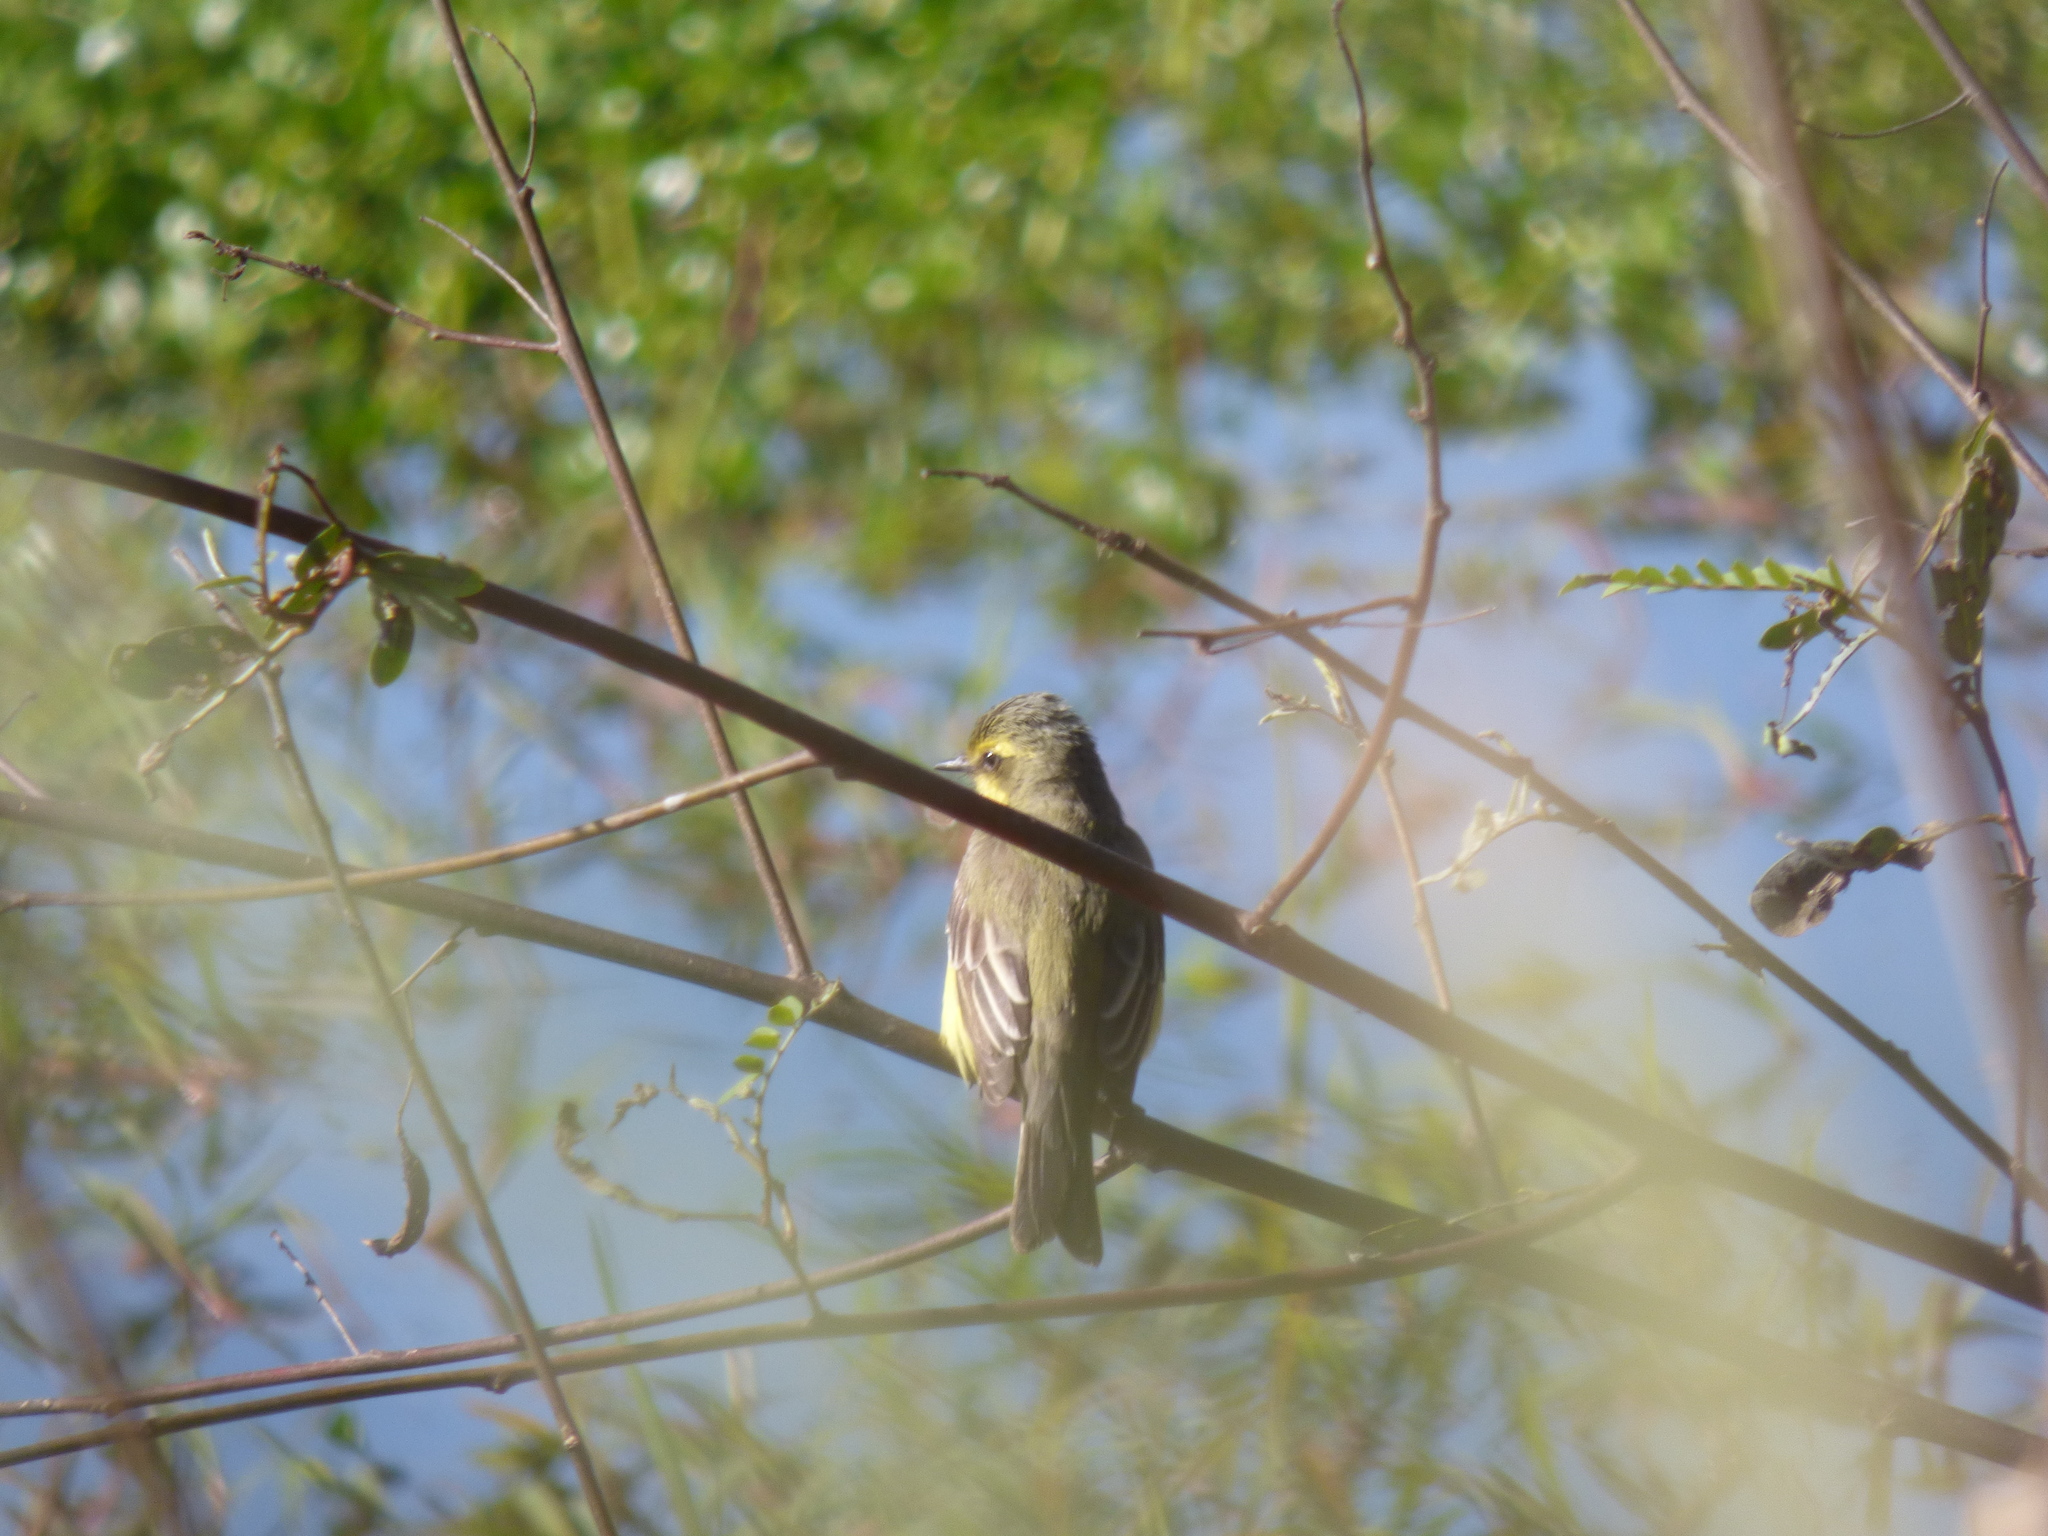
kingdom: Animalia
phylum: Chordata
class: Aves
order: Passeriformes
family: Tyrannidae
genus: Satrapa
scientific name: Satrapa icterophrys
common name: Yellow-browed tyrant
